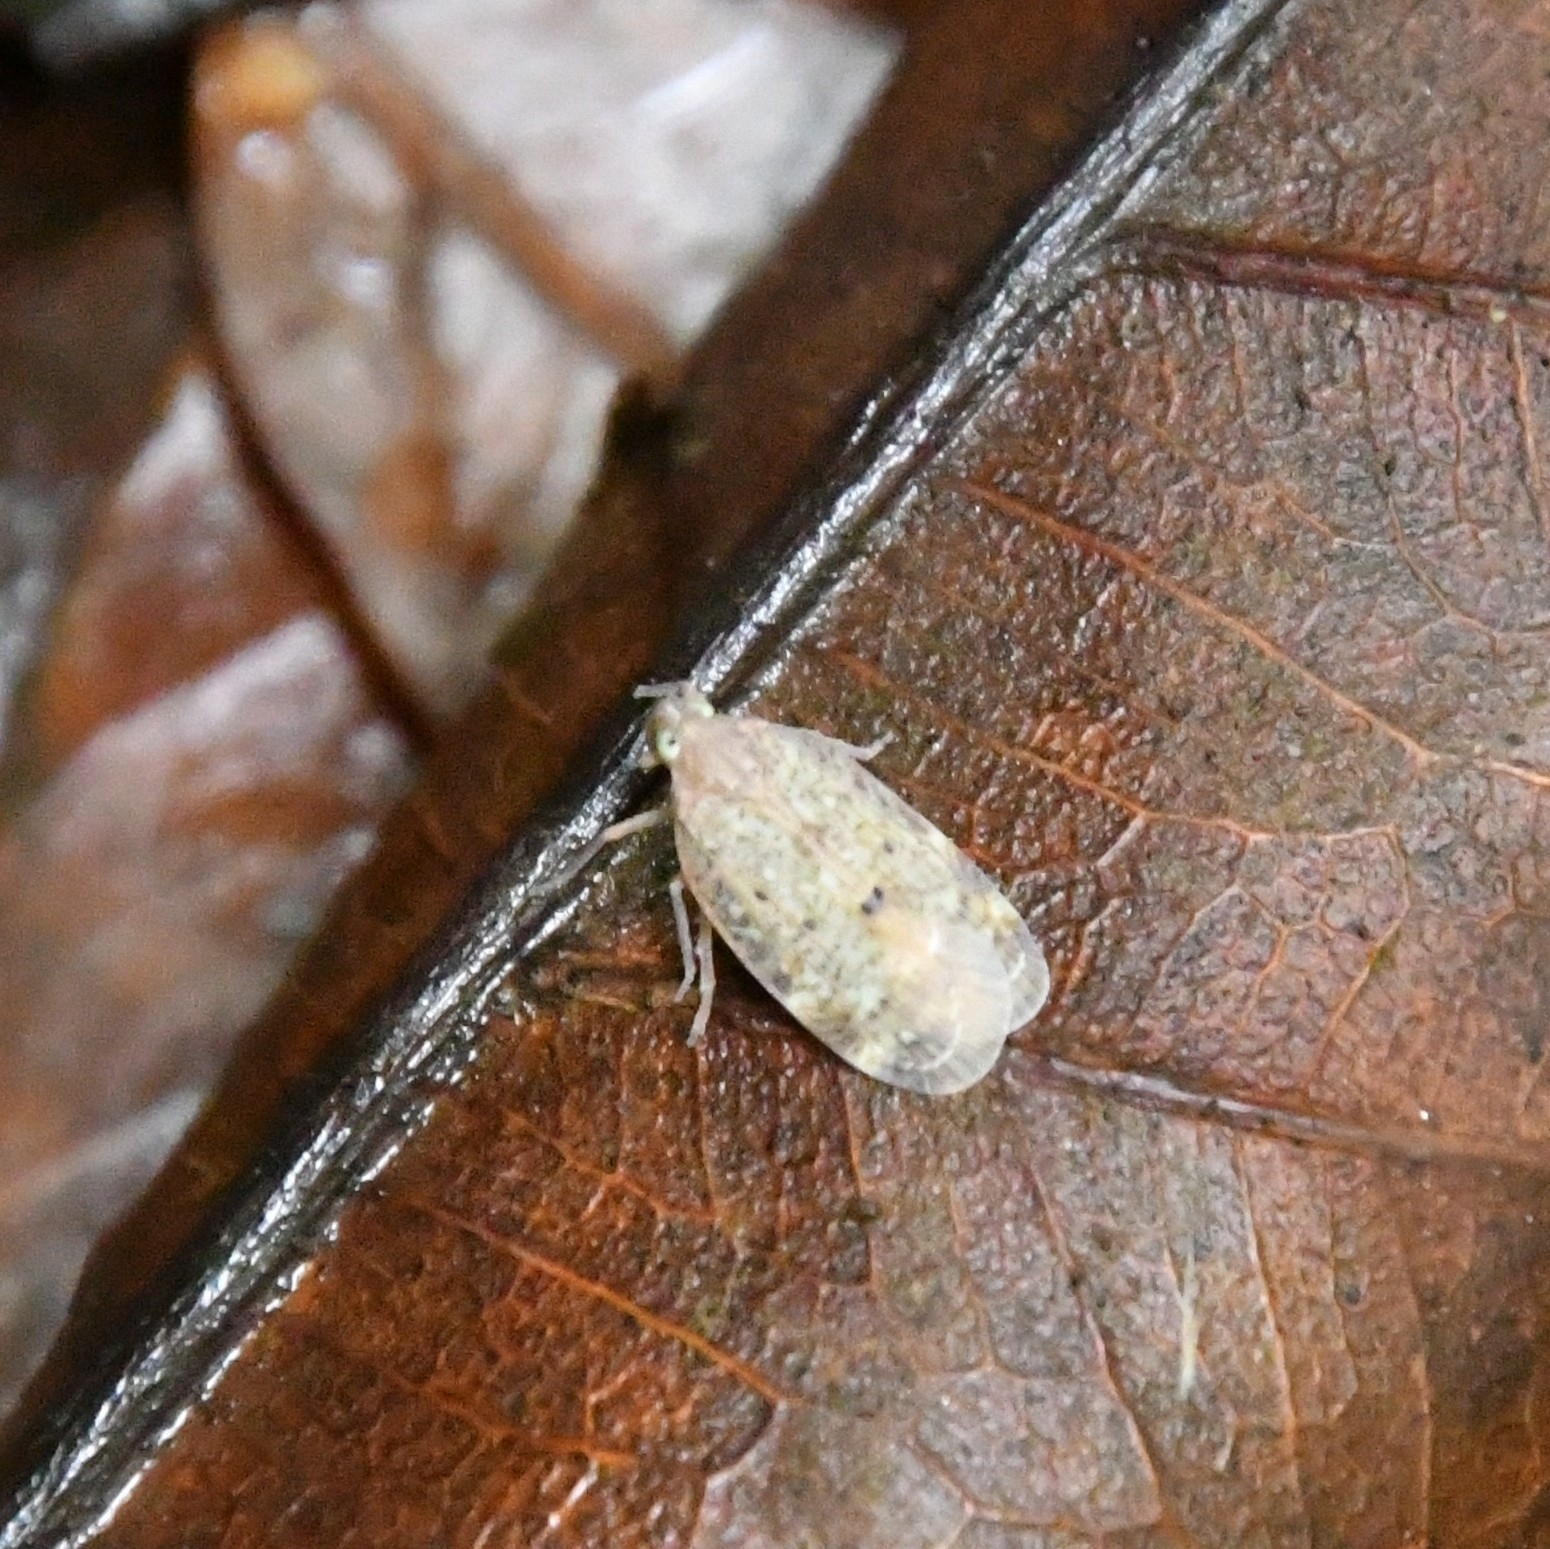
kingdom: Animalia
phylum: Arthropoda
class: Insecta
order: Hemiptera
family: Achilidae
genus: Paracatonidia
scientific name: Paracatonidia webbeda
